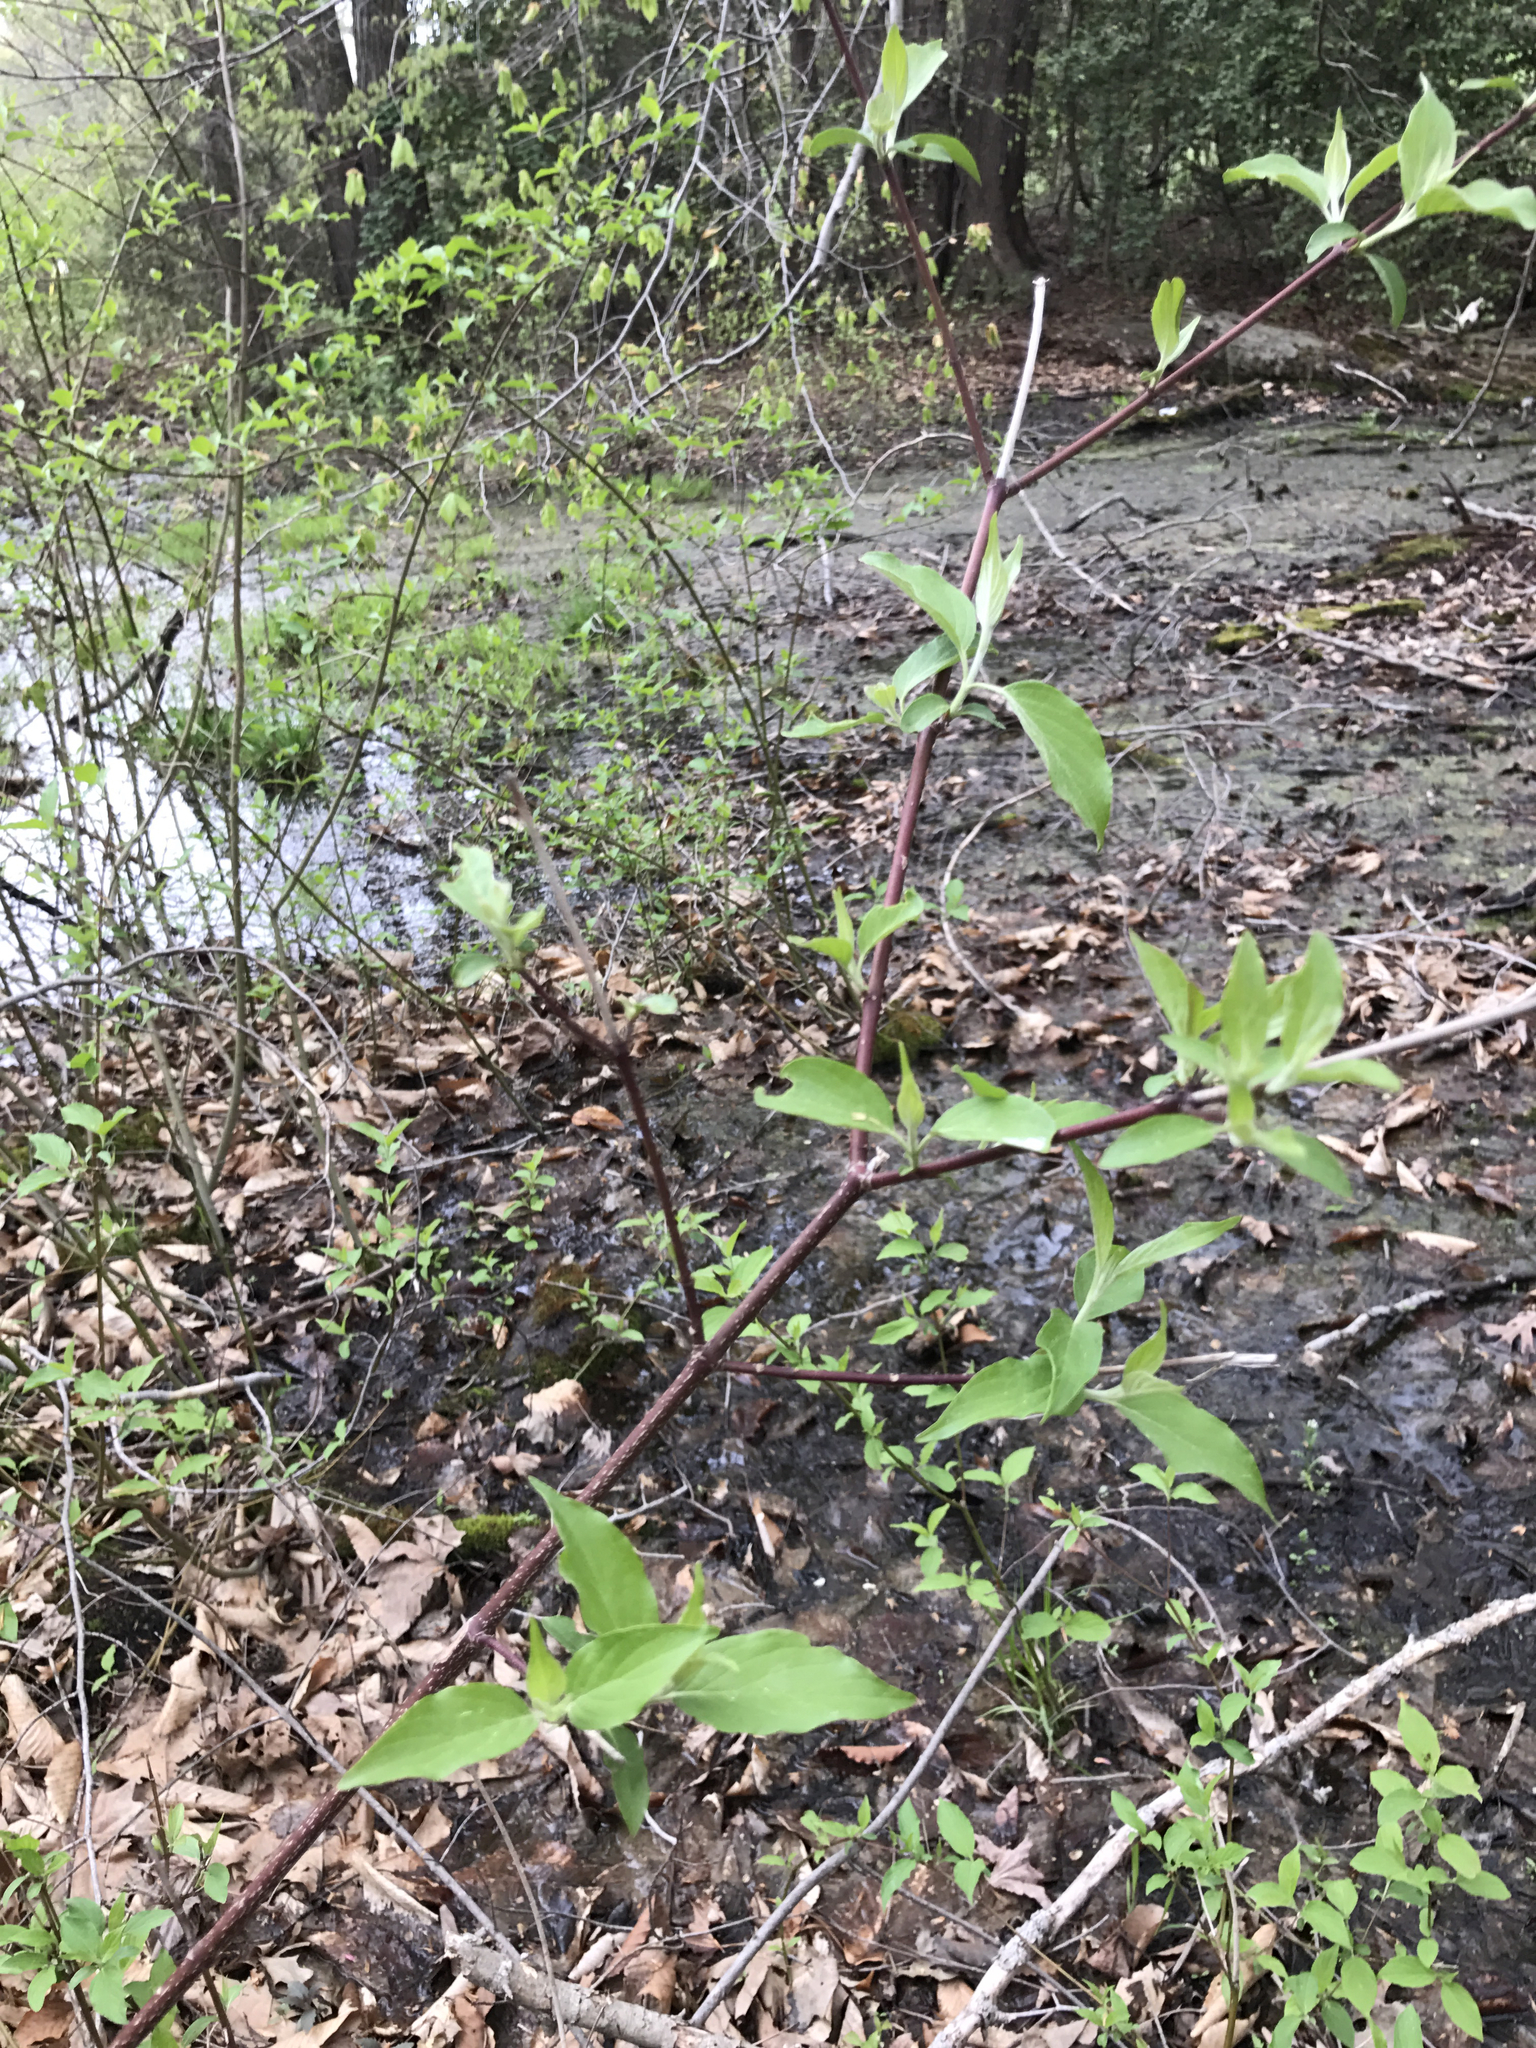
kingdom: Plantae
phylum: Tracheophyta
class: Magnoliopsida
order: Cornales
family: Cornaceae
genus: Cornus
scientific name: Cornus amomum
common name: Silky dogwood
